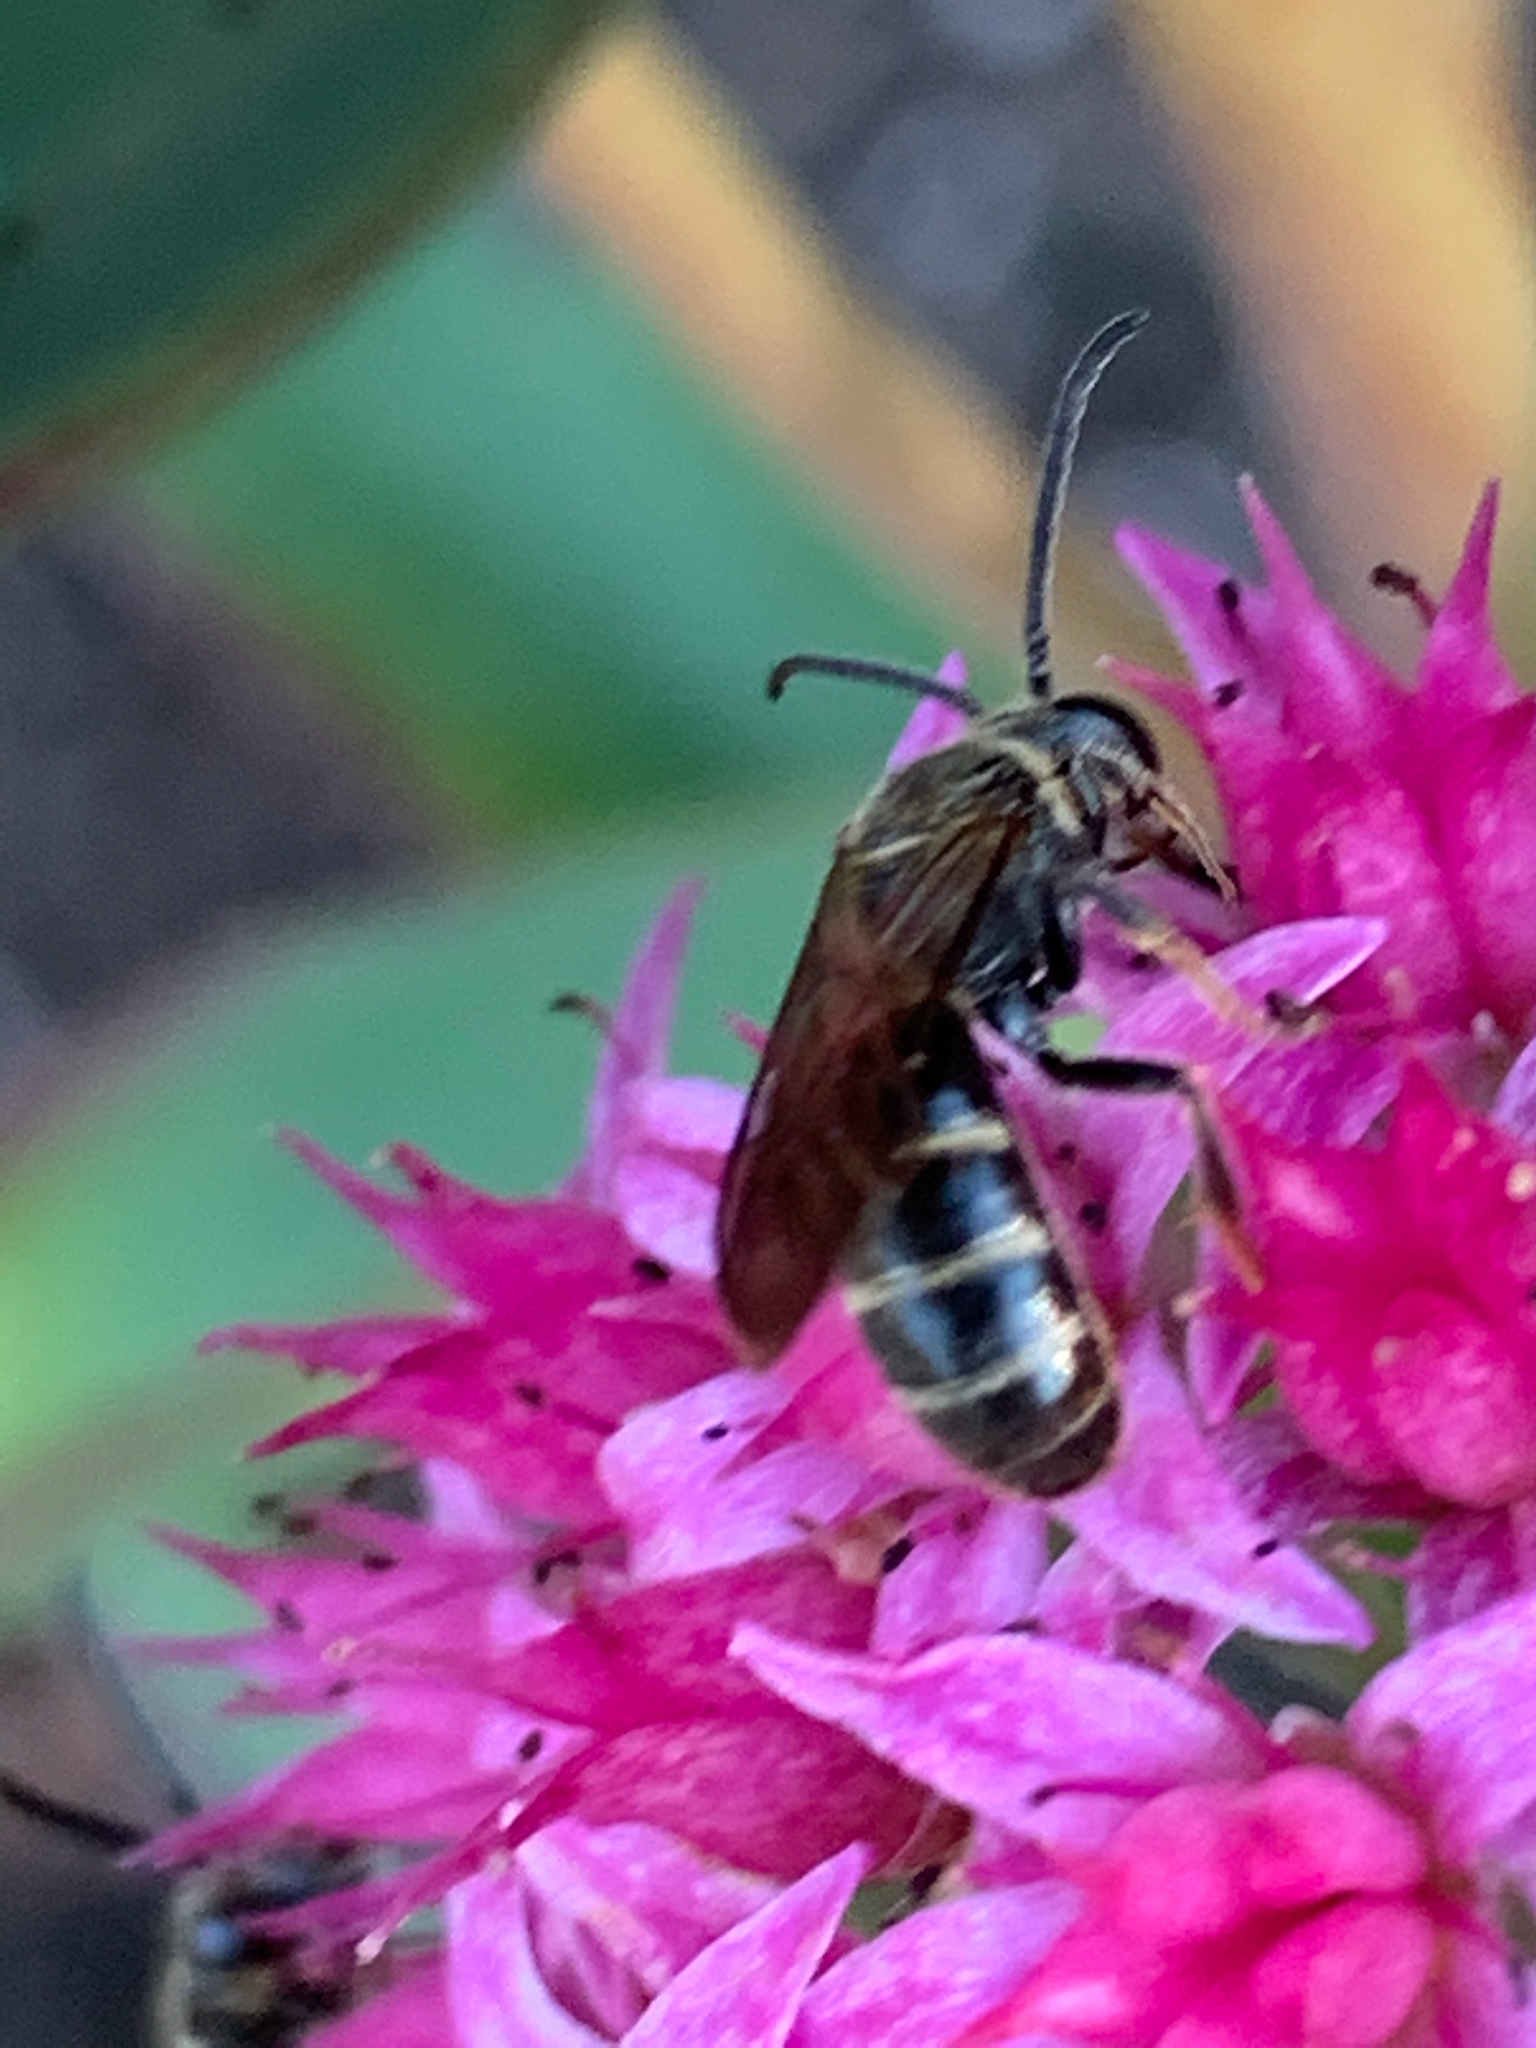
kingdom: Animalia
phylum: Arthropoda
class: Insecta
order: Hymenoptera
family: Halictidae
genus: Lasioglossum
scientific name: Lasioglossum fuscipenne
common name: Brown-winged sweat bee
